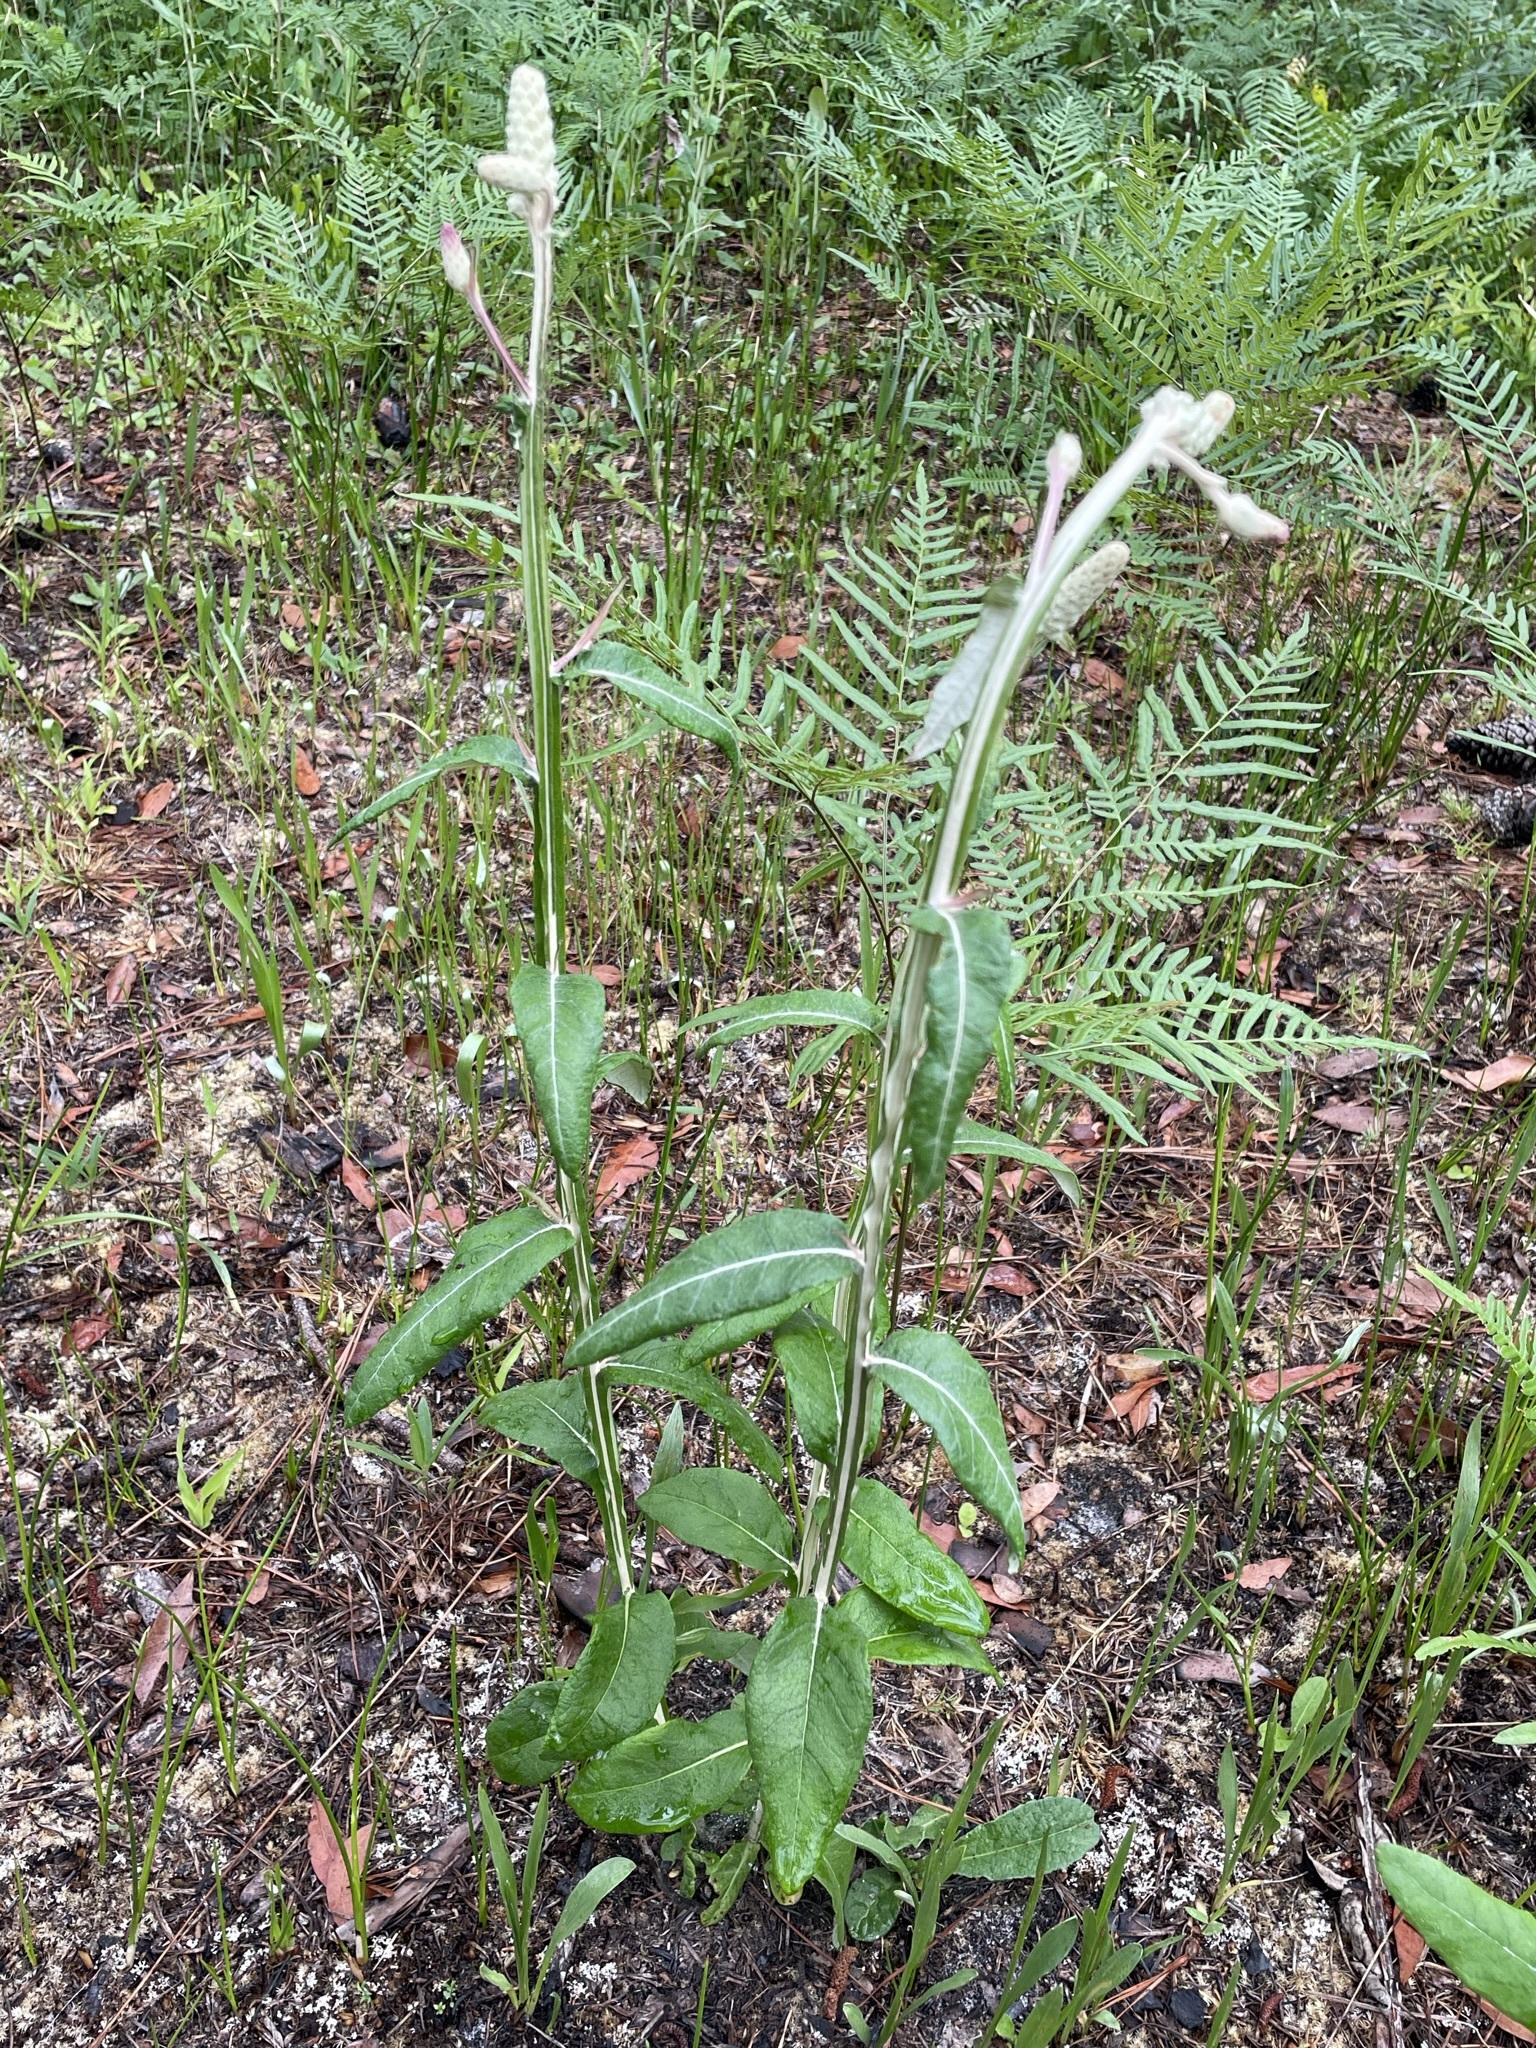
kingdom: Plantae
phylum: Tracheophyta
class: Magnoliopsida
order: Asterales
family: Asteraceae
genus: Pterocaulon
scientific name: Pterocaulon pycnostachyum
